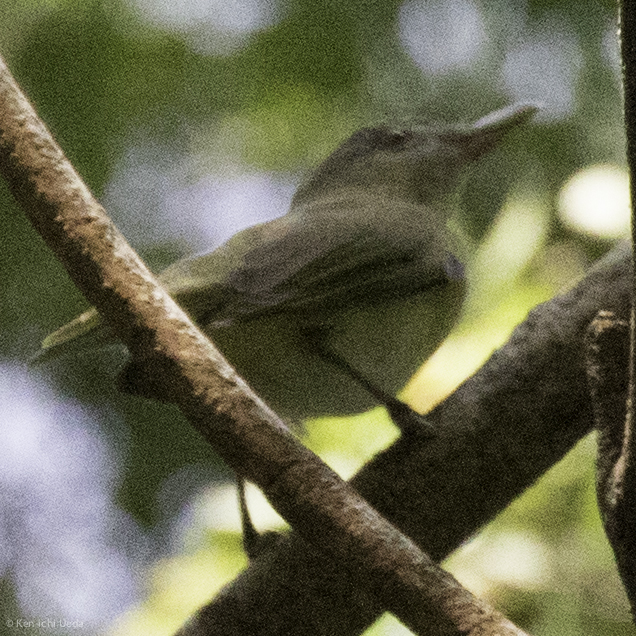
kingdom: Animalia
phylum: Chordata
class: Aves
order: Passeriformes
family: Vireonidae
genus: Vireo
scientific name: Vireo flavoviridis
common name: Yellow-green vireo
